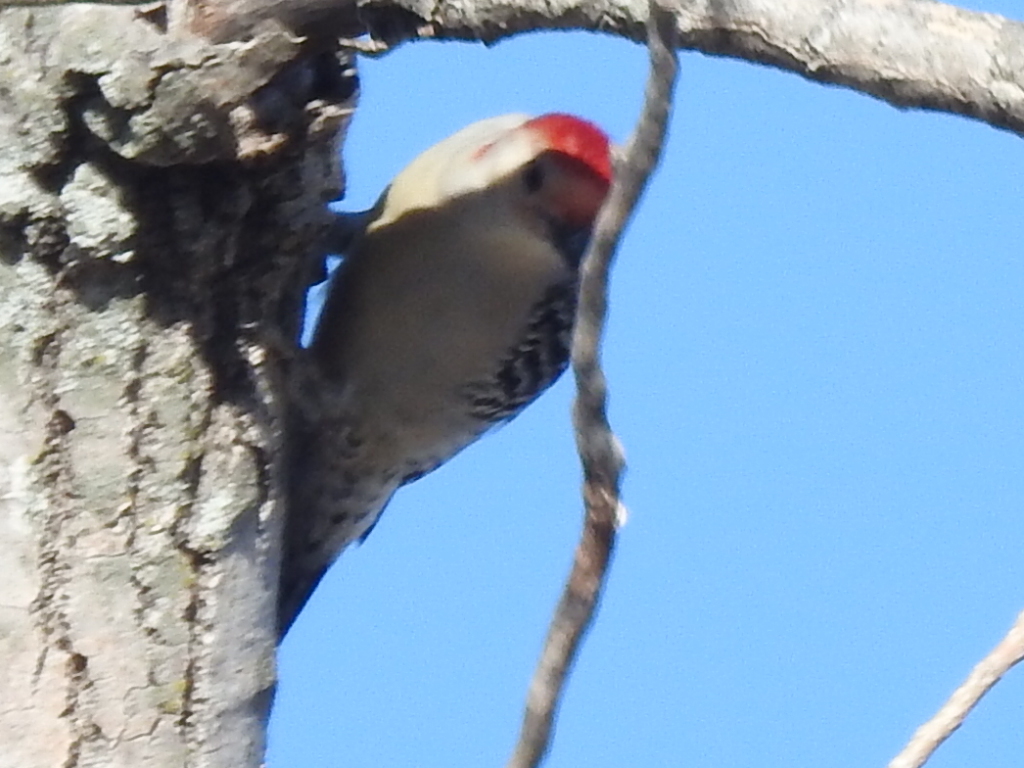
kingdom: Animalia
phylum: Chordata
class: Aves
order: Piciformes
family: Picidae
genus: Melanerpes
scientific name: Melanerpes carolinus
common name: Red-bellied woodpecker
